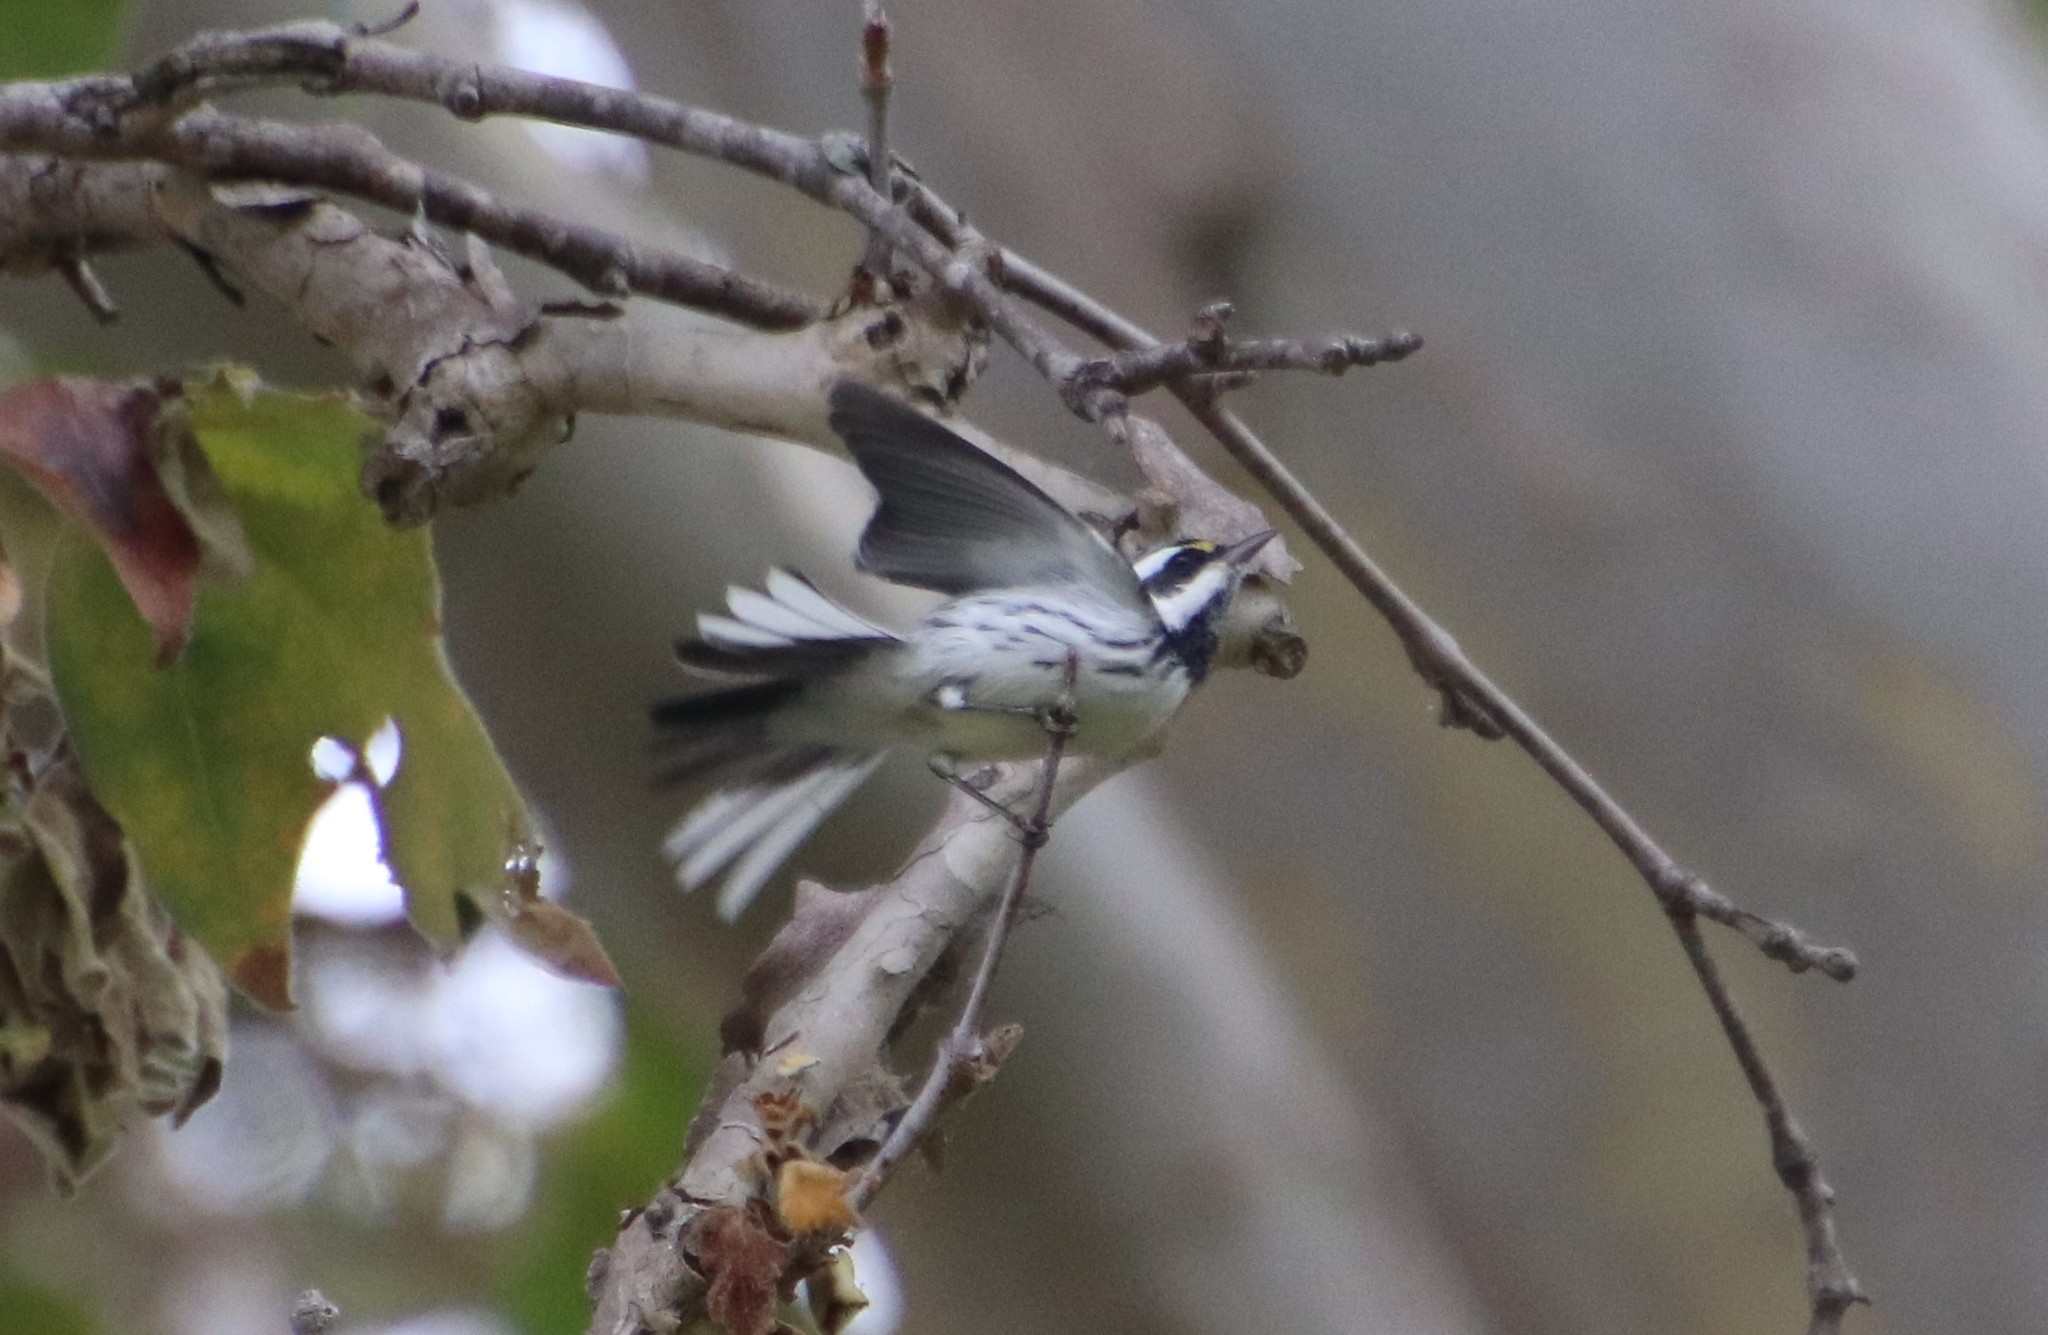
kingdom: Animalia
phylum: Chordata
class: Aves
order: Passeriformes
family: Parulidae
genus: Setophaga
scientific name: Setophaga nigrescens
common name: Black-throated gray warbler
